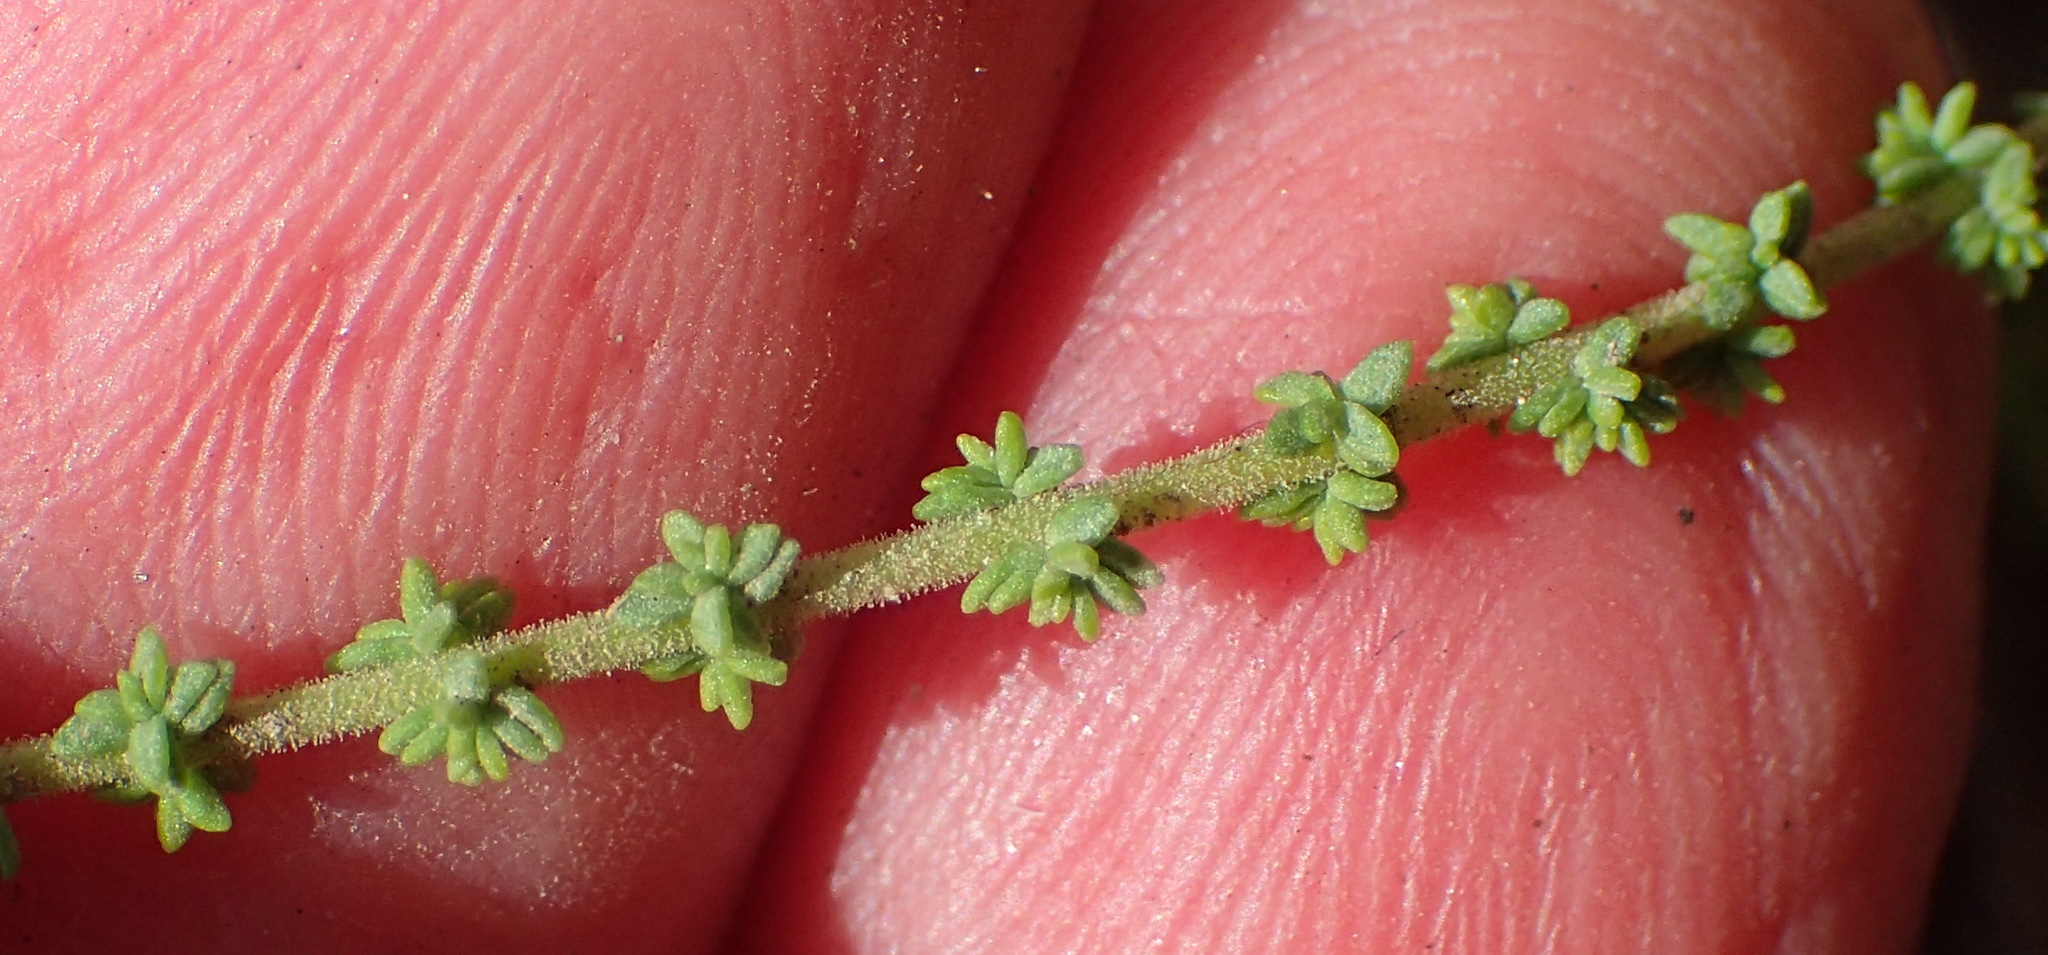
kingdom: Plantae
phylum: Tracheophyta
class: Magnoliopsida
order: Lamiales
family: Scrophulariaceae
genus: Jamesbrittenia
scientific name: Jamesbrittenia microphylla
